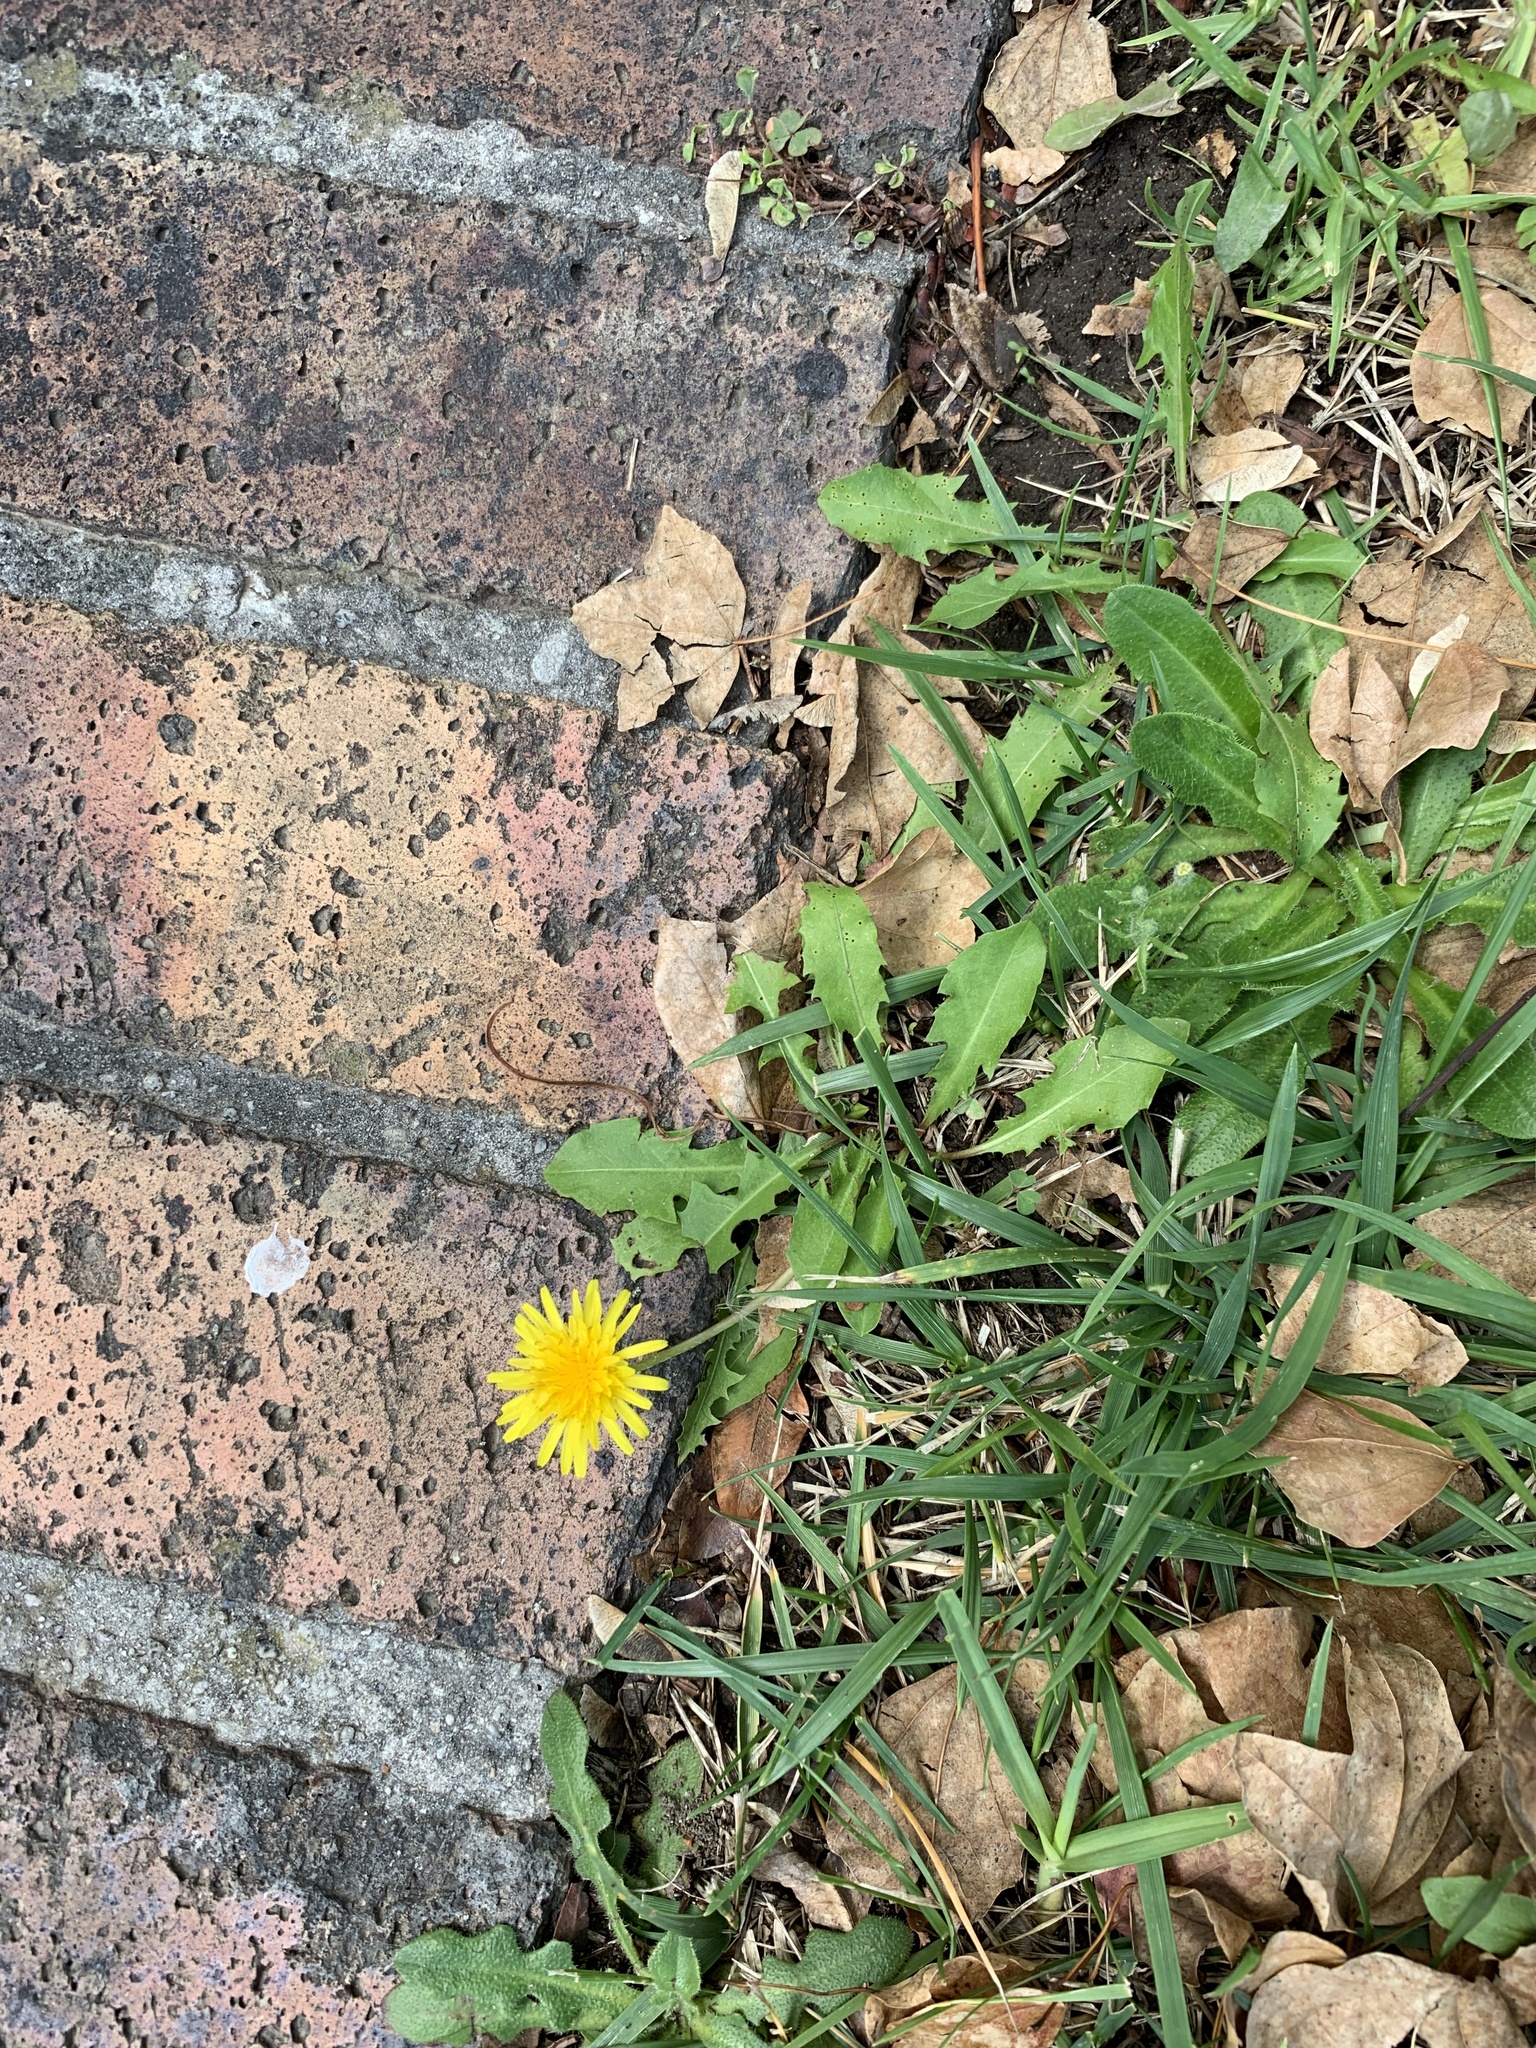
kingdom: Plantae
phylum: Tracheophyta
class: Magnoliopsida
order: Asterales
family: Asteraceae
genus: Taraxacum
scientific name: Taraxacum officinale
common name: Common dandelion
